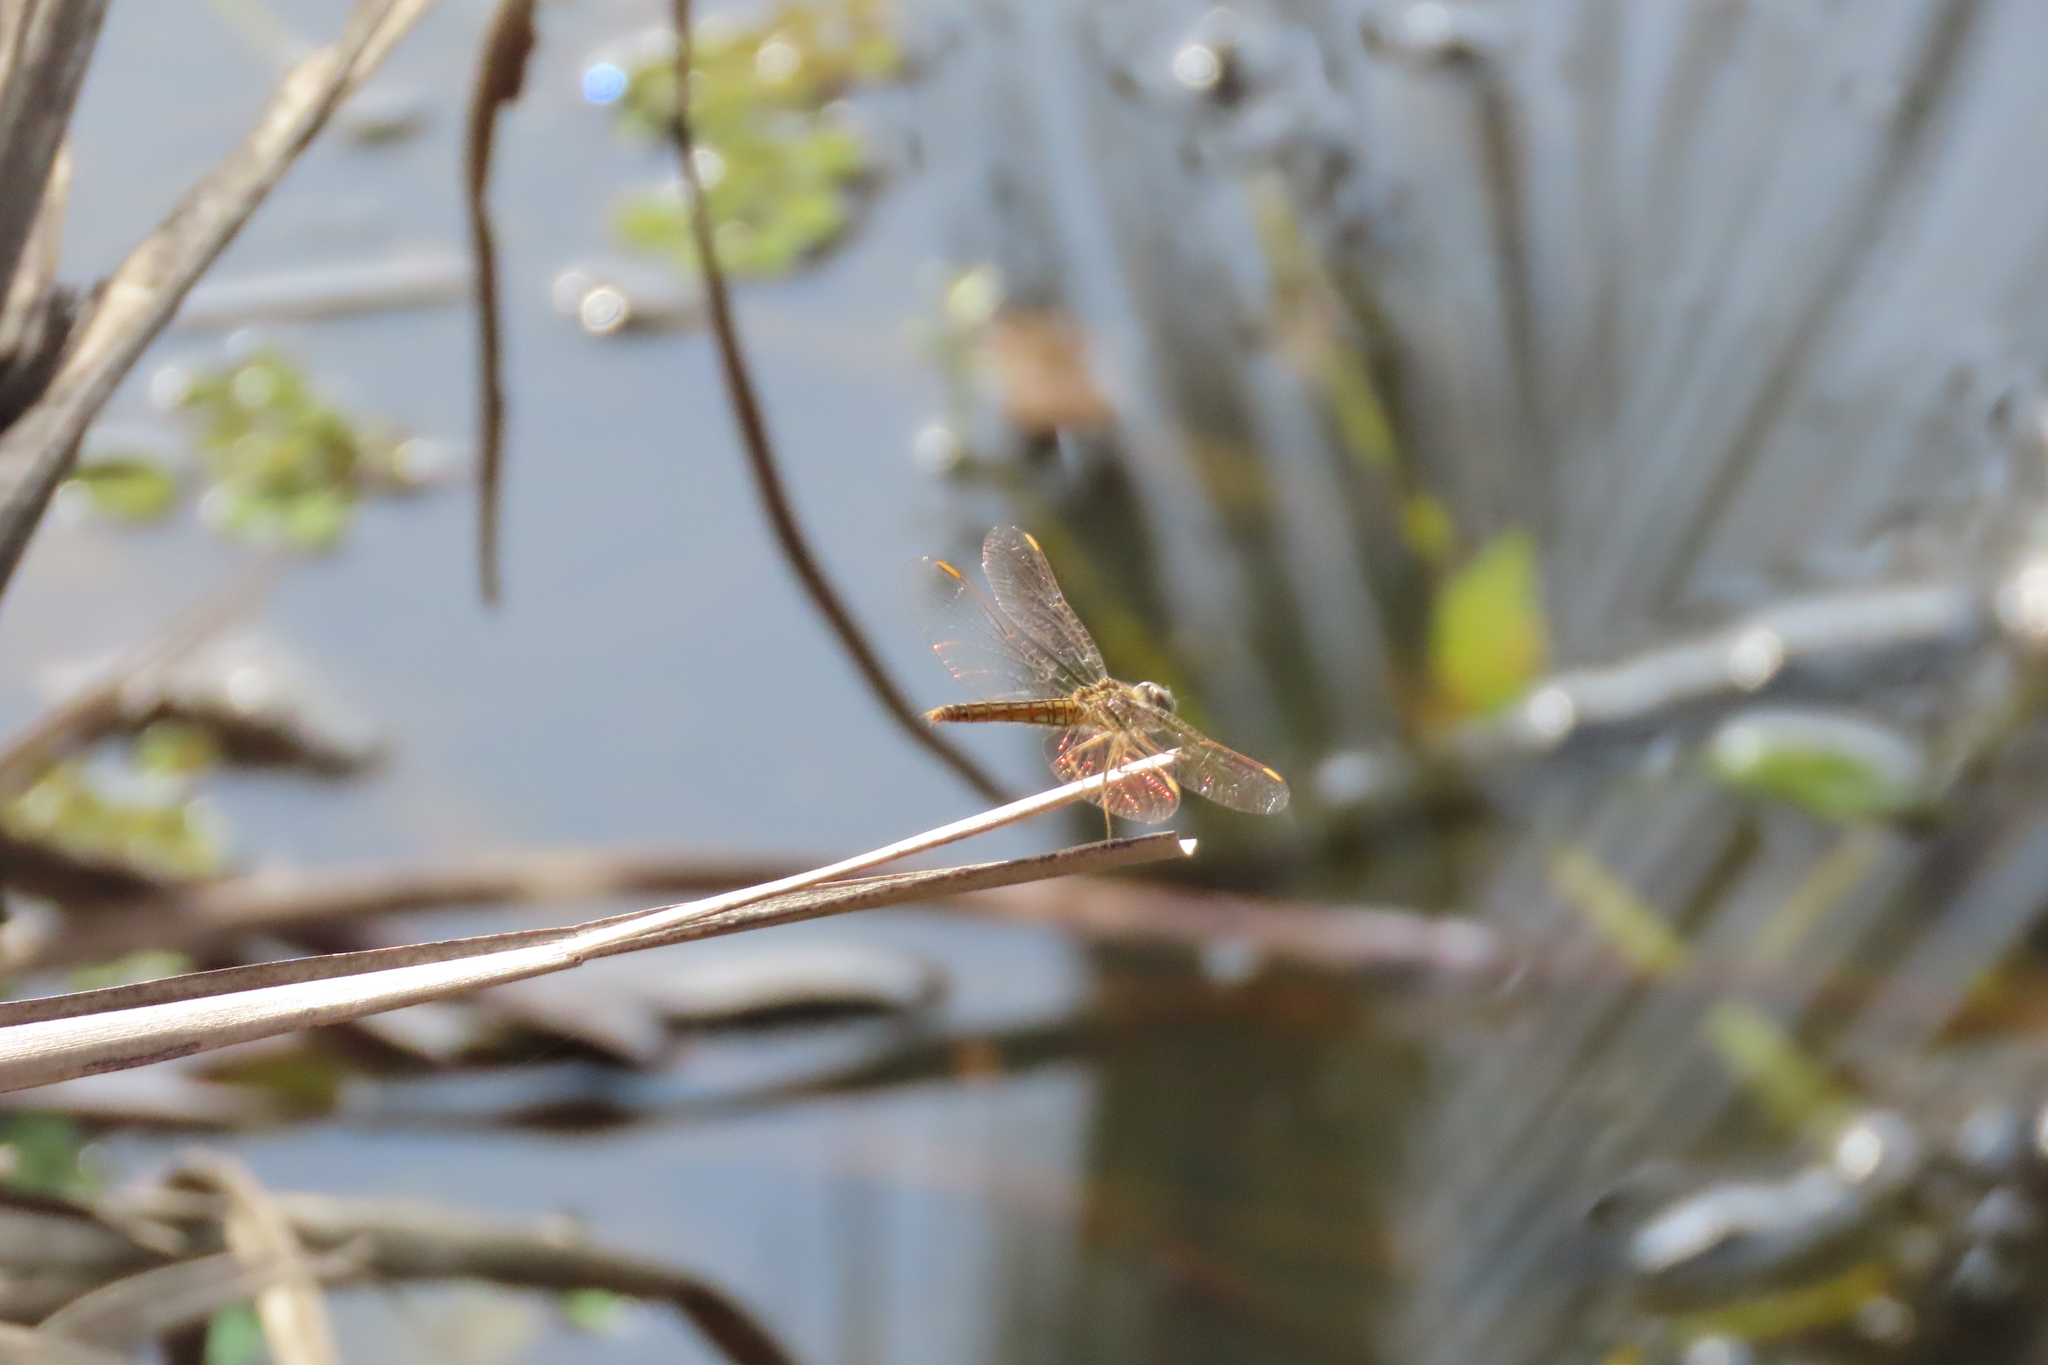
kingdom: Animalia
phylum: Arthropoda
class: Insecta
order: Odonata
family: Libellulidae
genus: Brachythemis
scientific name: Brachythemis contaminata
